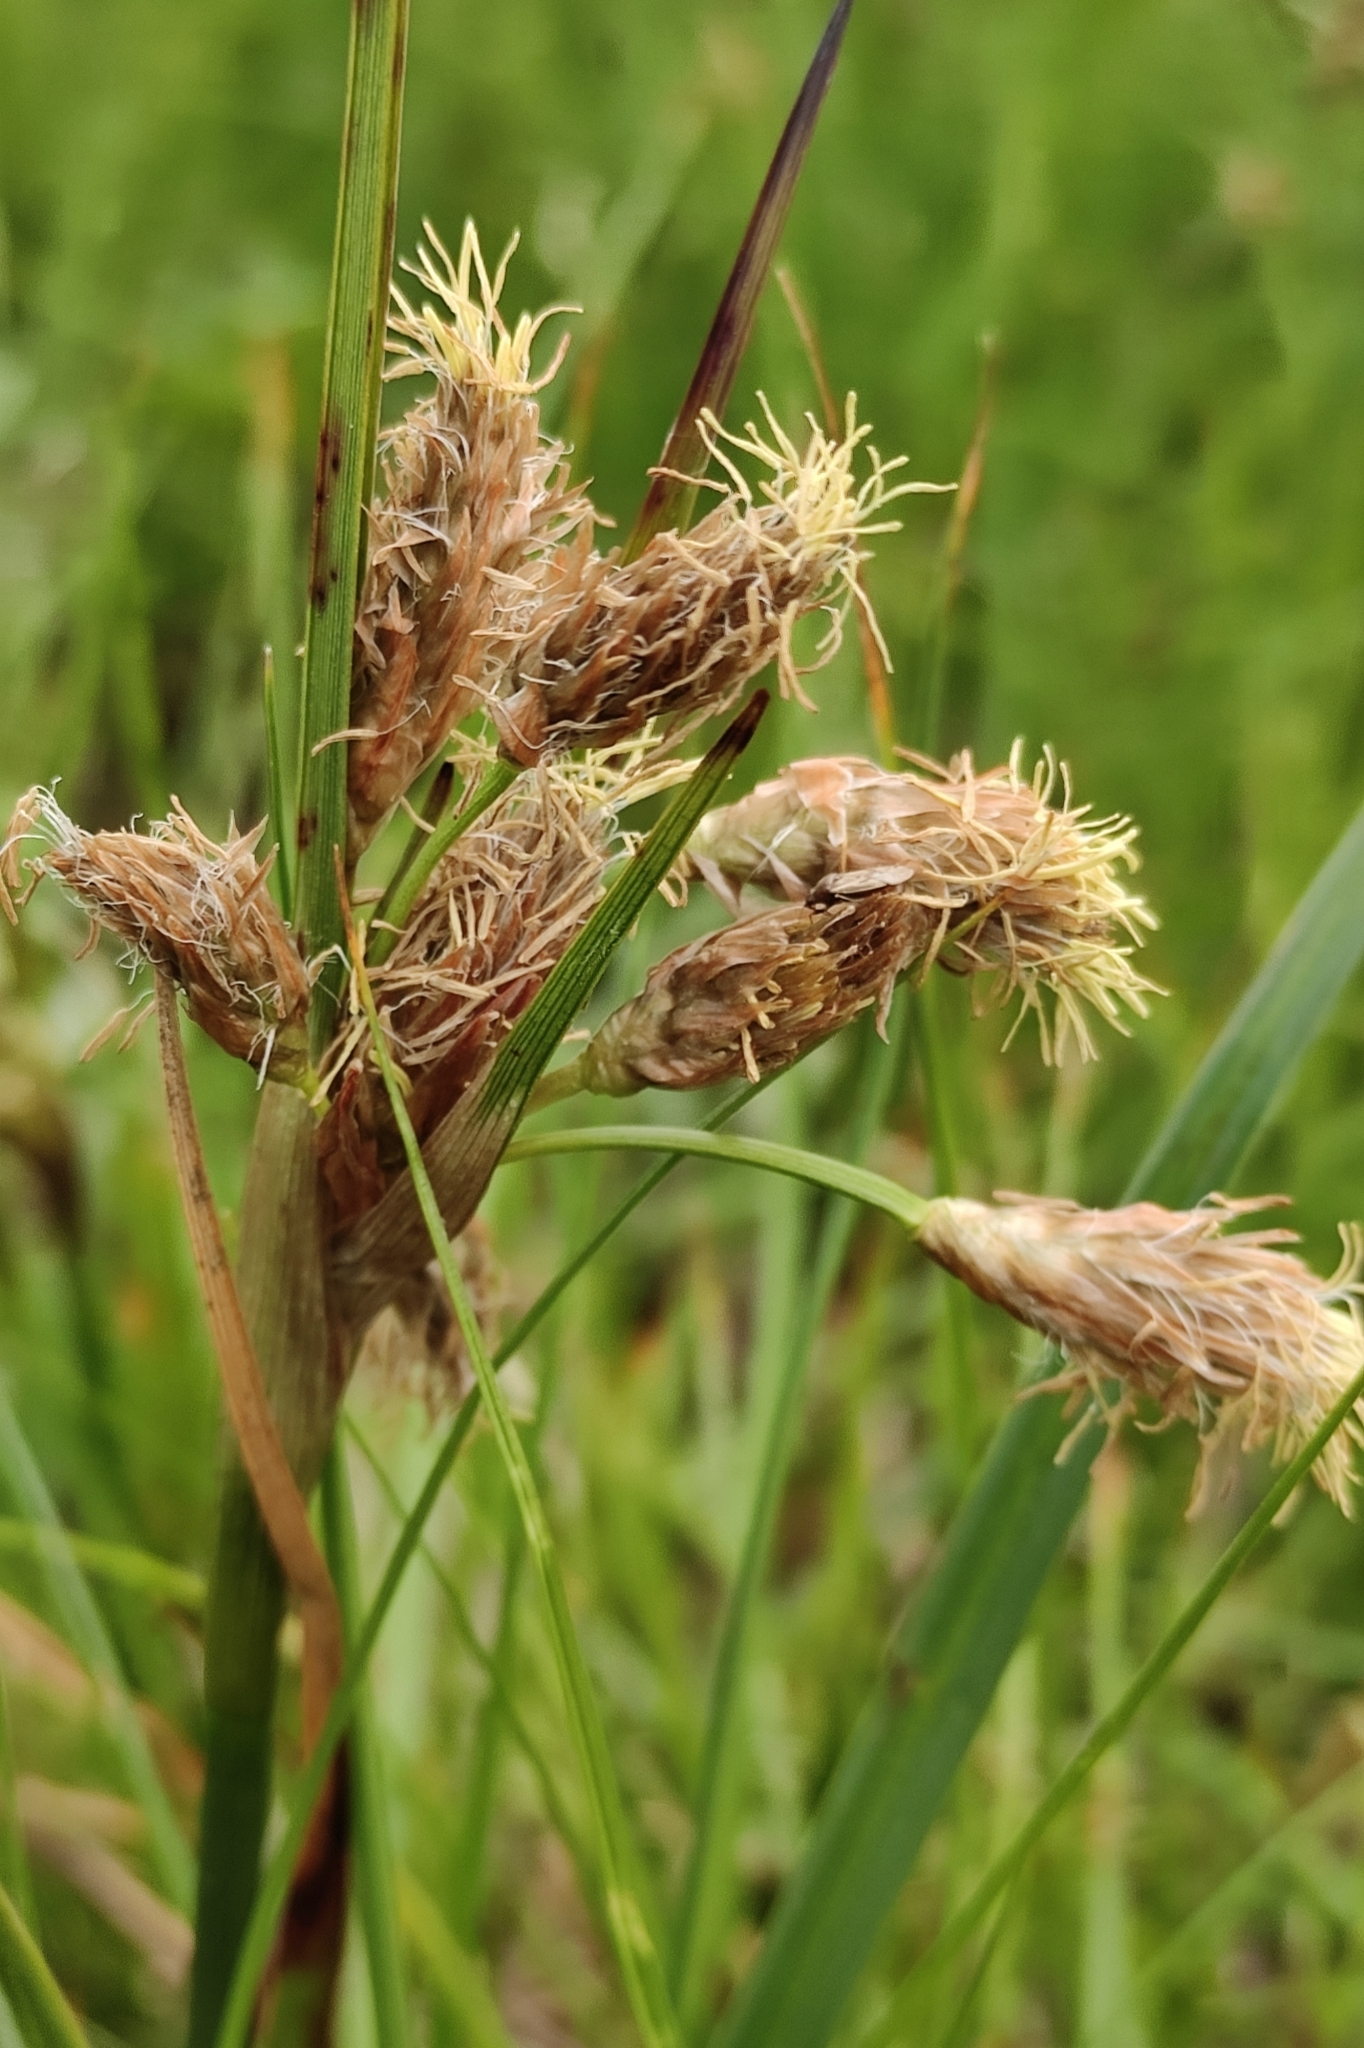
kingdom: Plantae
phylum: Tracheophyta
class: Liliopsida
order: Poales
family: Cyperaceae
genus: Eriophorum
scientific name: Eriophorum angustifolium
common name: Common cottongrass
